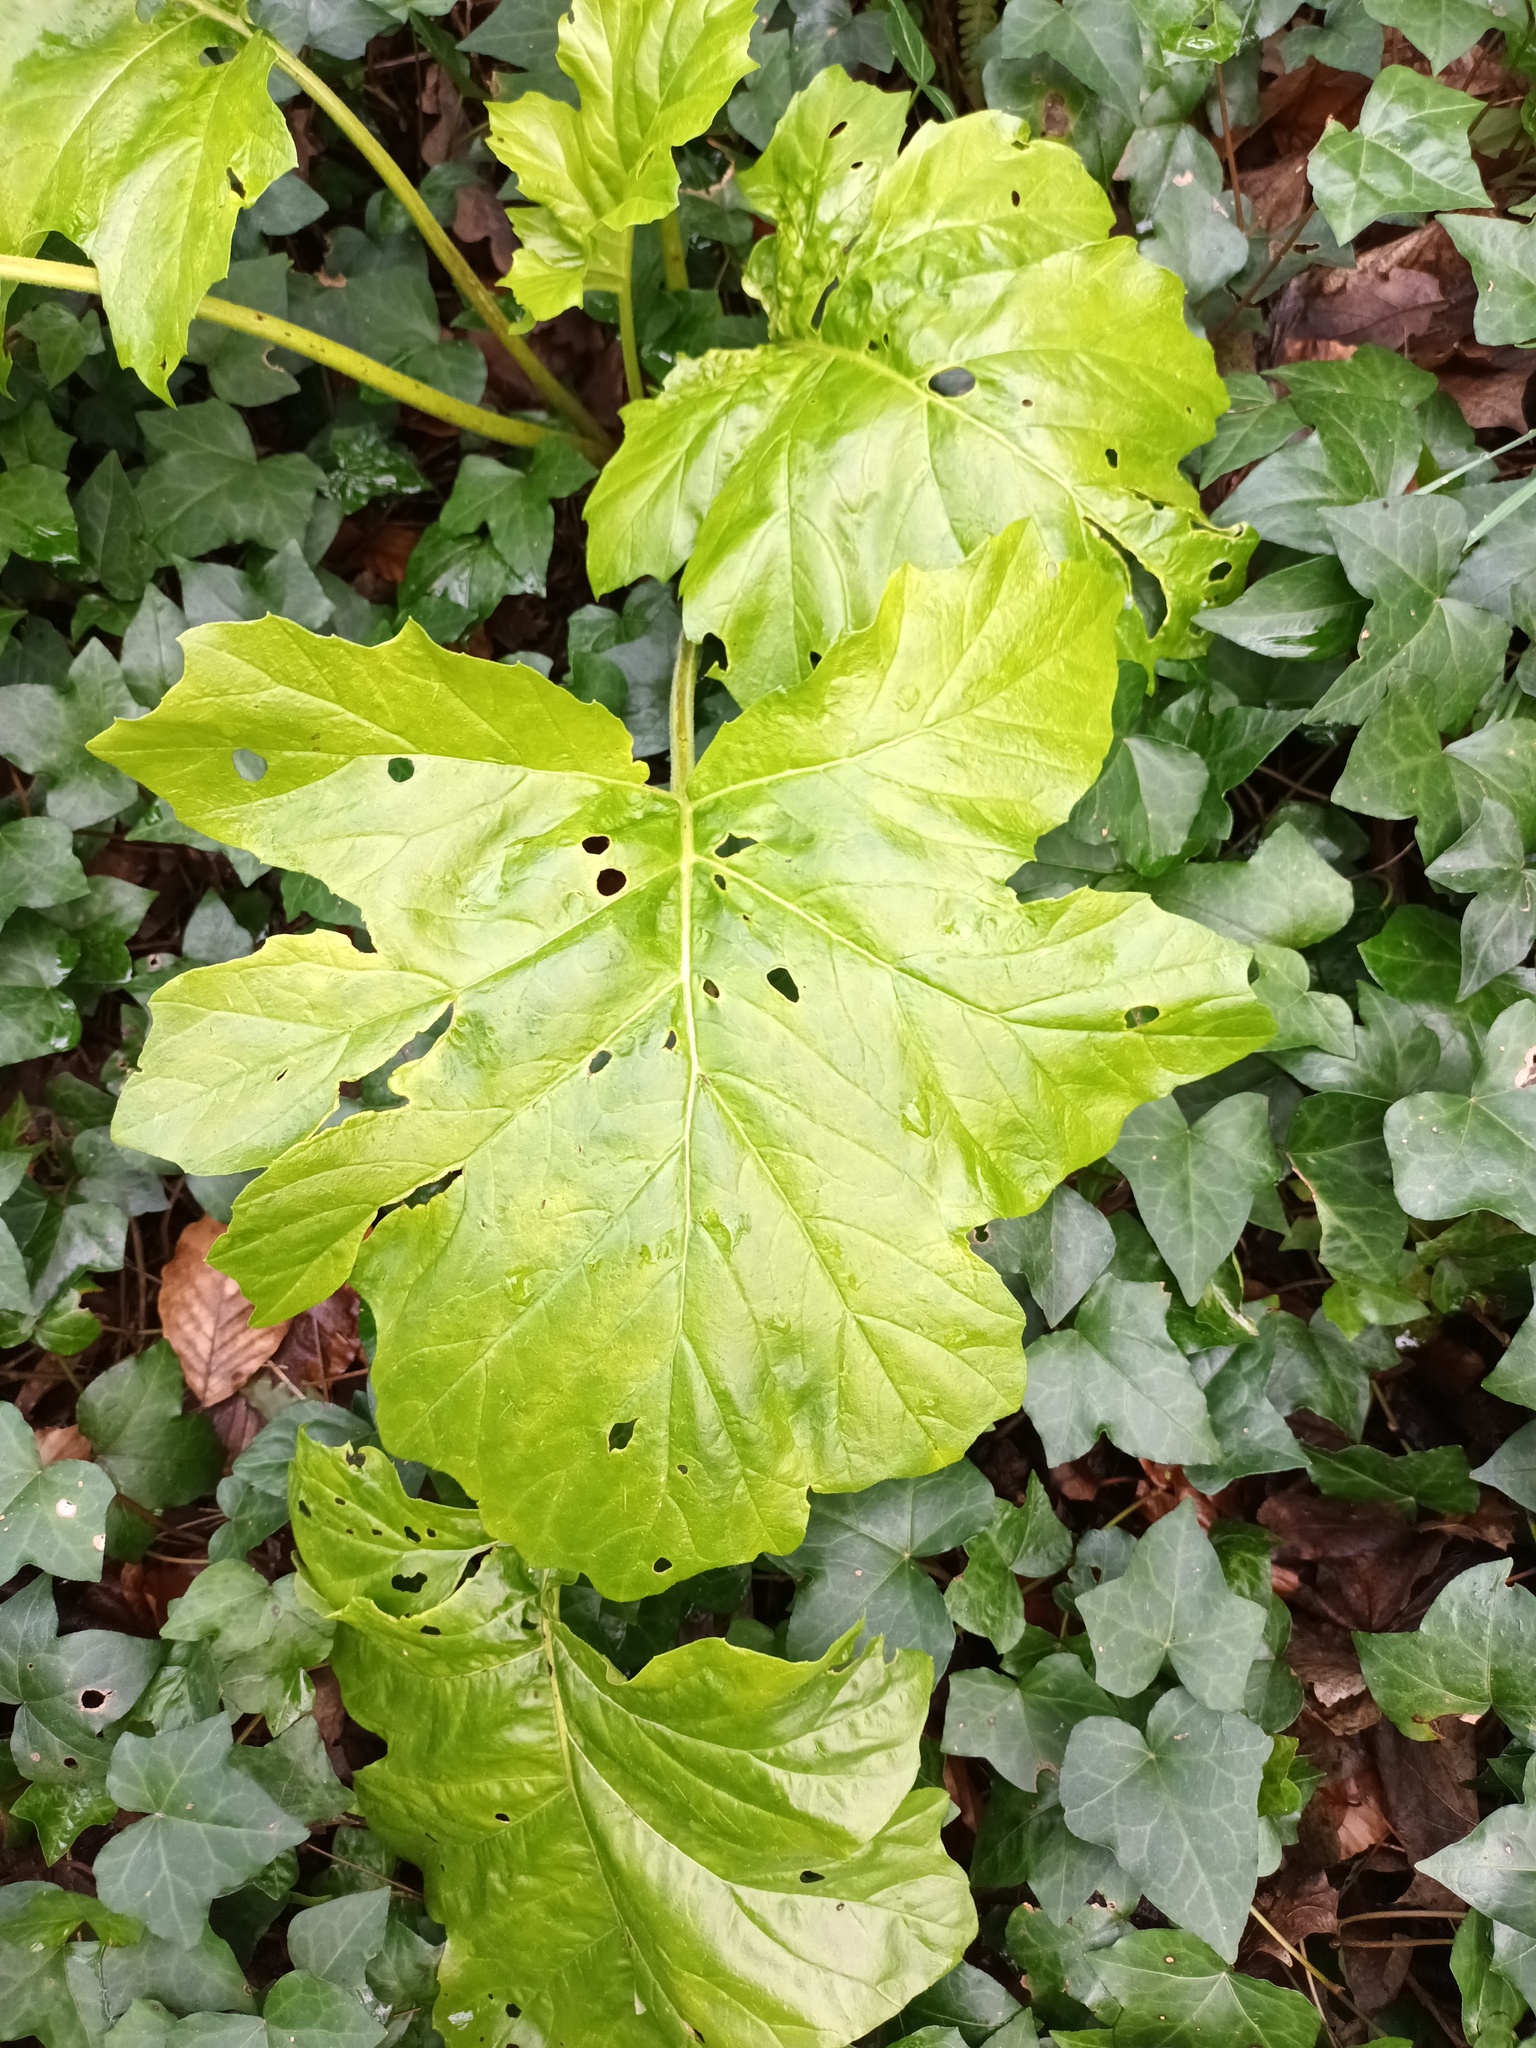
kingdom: Plantae
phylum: Tracheophyta
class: Magnoliopsida
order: Lamiales
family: Acanthaceae
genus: Acanthus
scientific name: Acanthus mollis
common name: Bear's-breech
